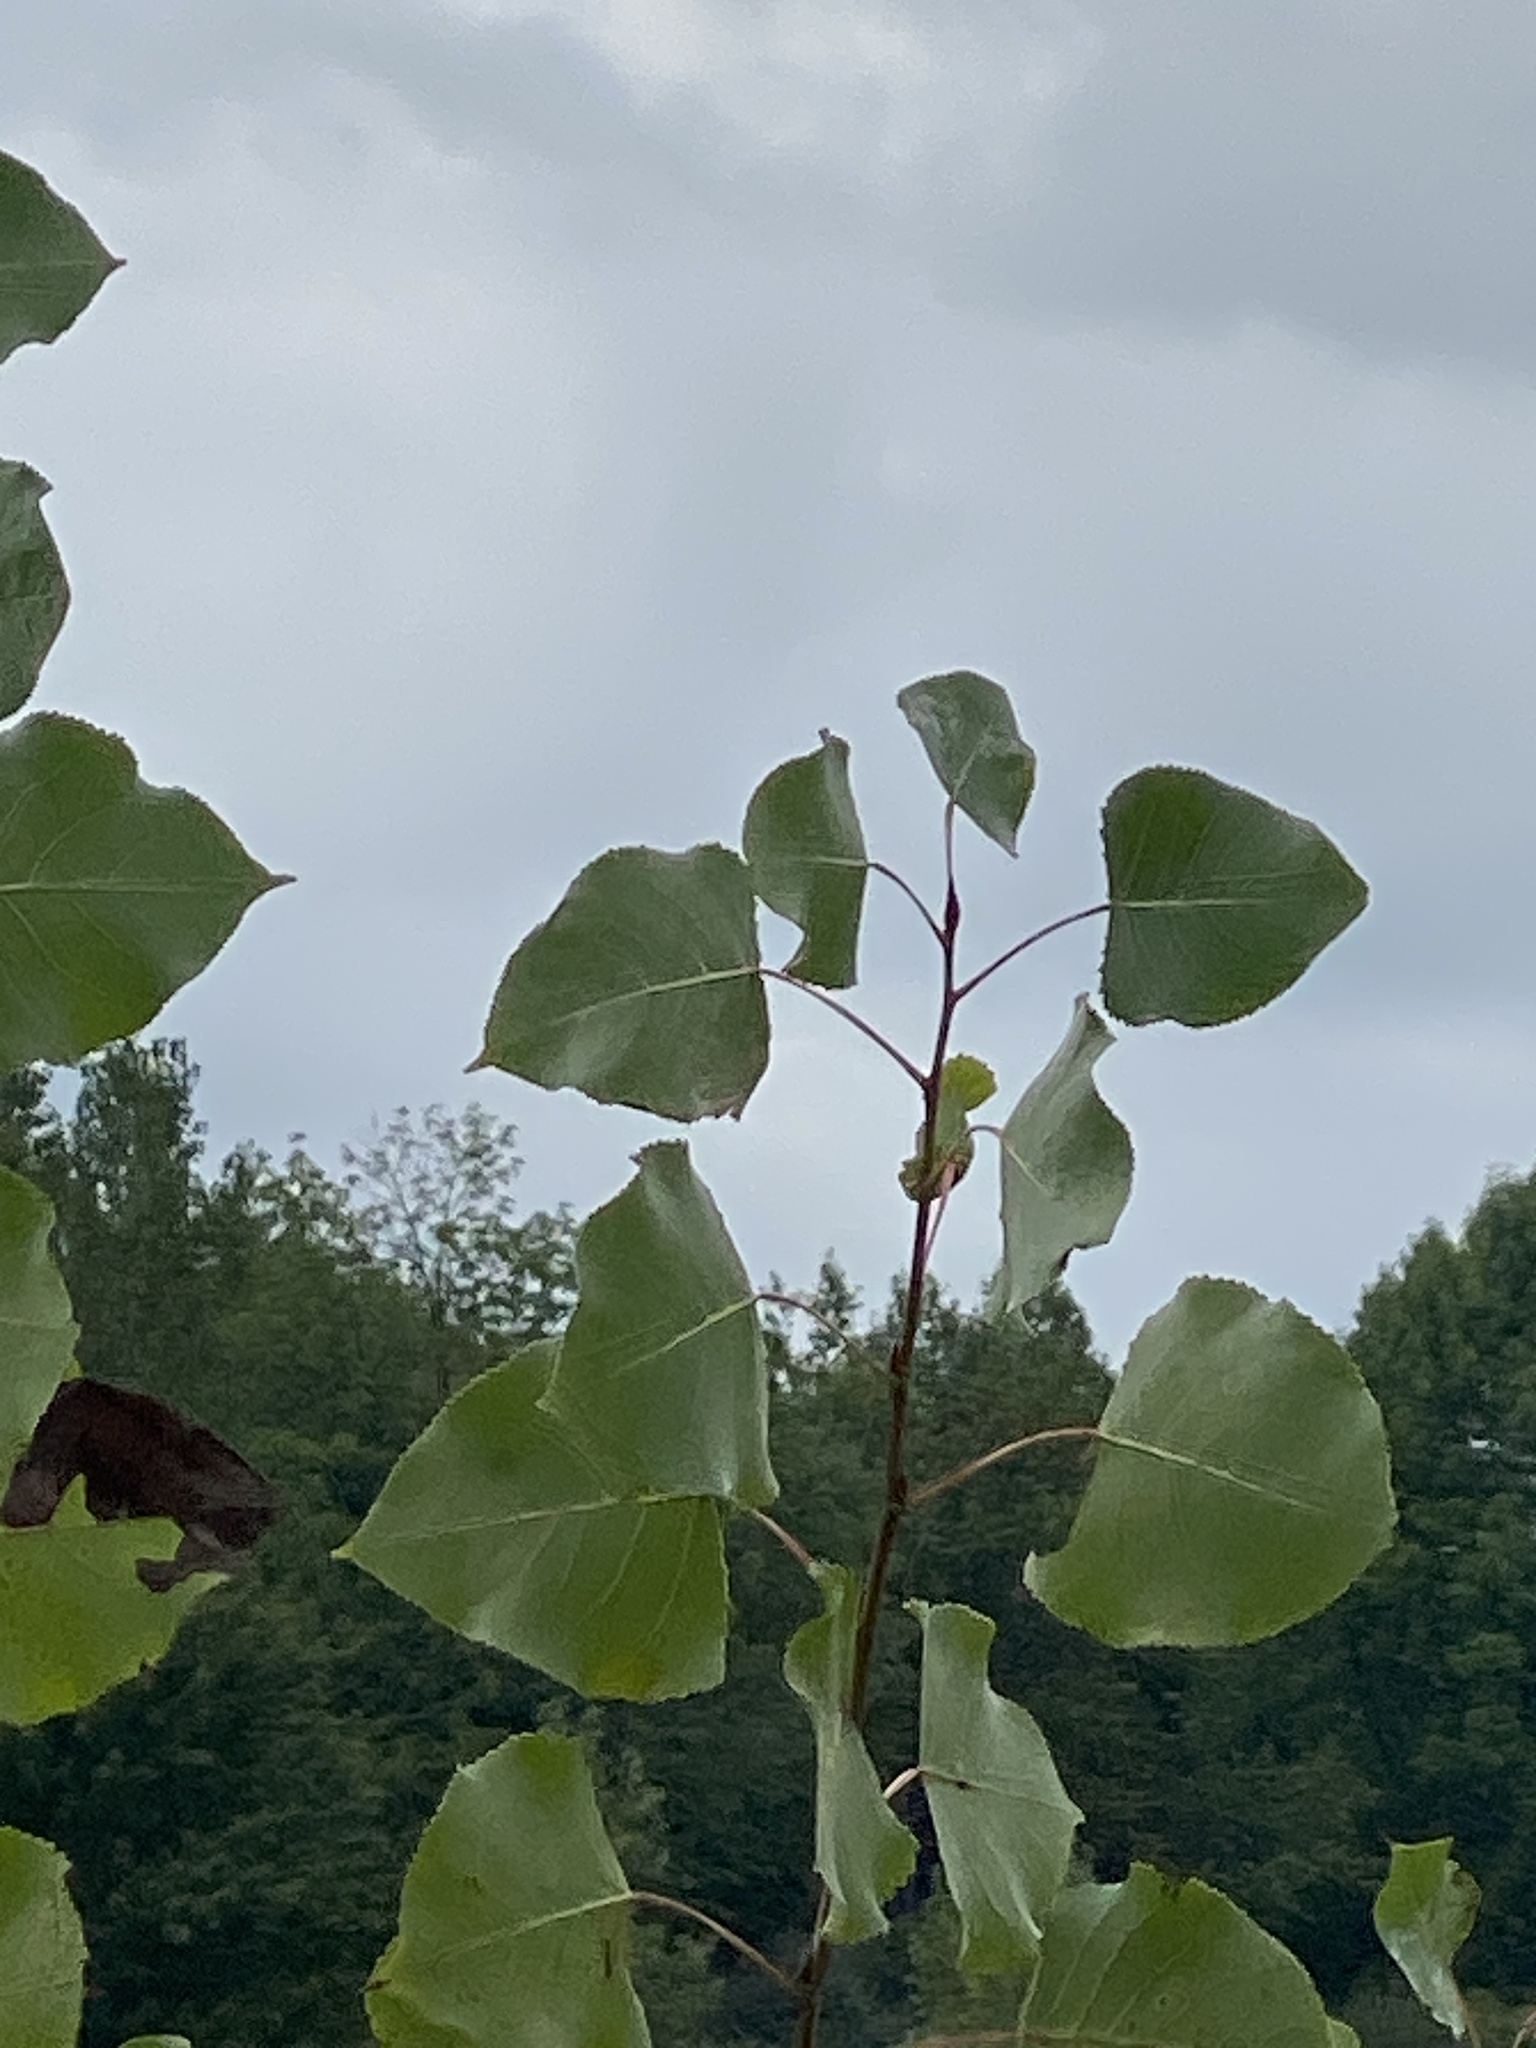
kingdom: Plantae
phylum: Tracheophyta
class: Magnoliopsida
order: Malpighiales
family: Salicaceae
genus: Populus
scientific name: Populus deltoides
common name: Eastern cottonwood
